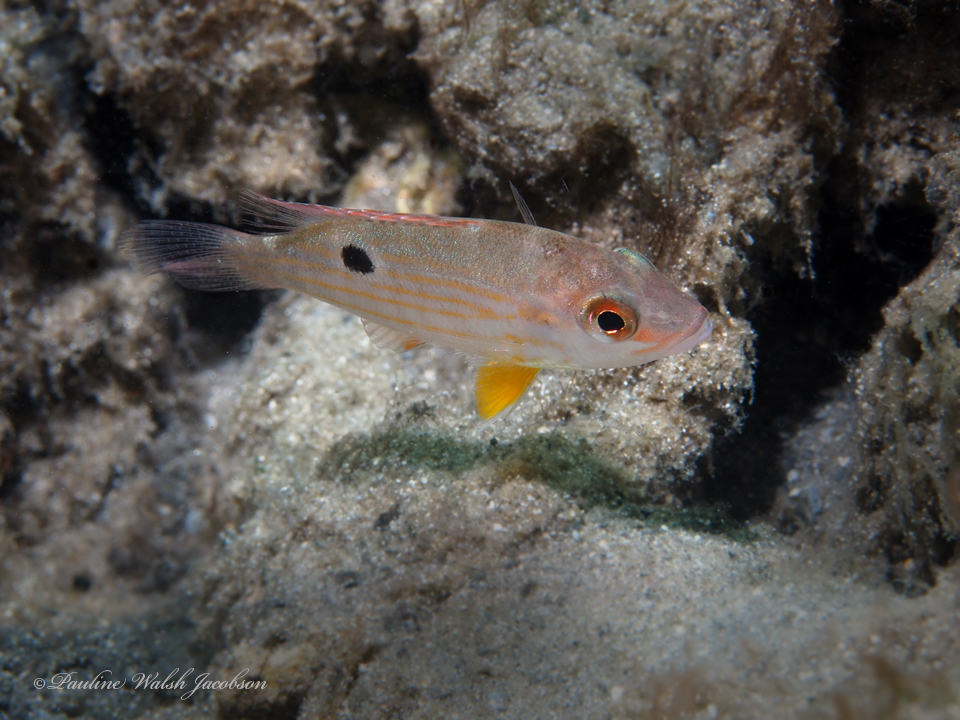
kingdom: Animalia
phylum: Chordata
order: Perciformes
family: Lutjanidae
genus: Lutjanus
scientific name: Lutjanus synagris
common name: Lane snapper
